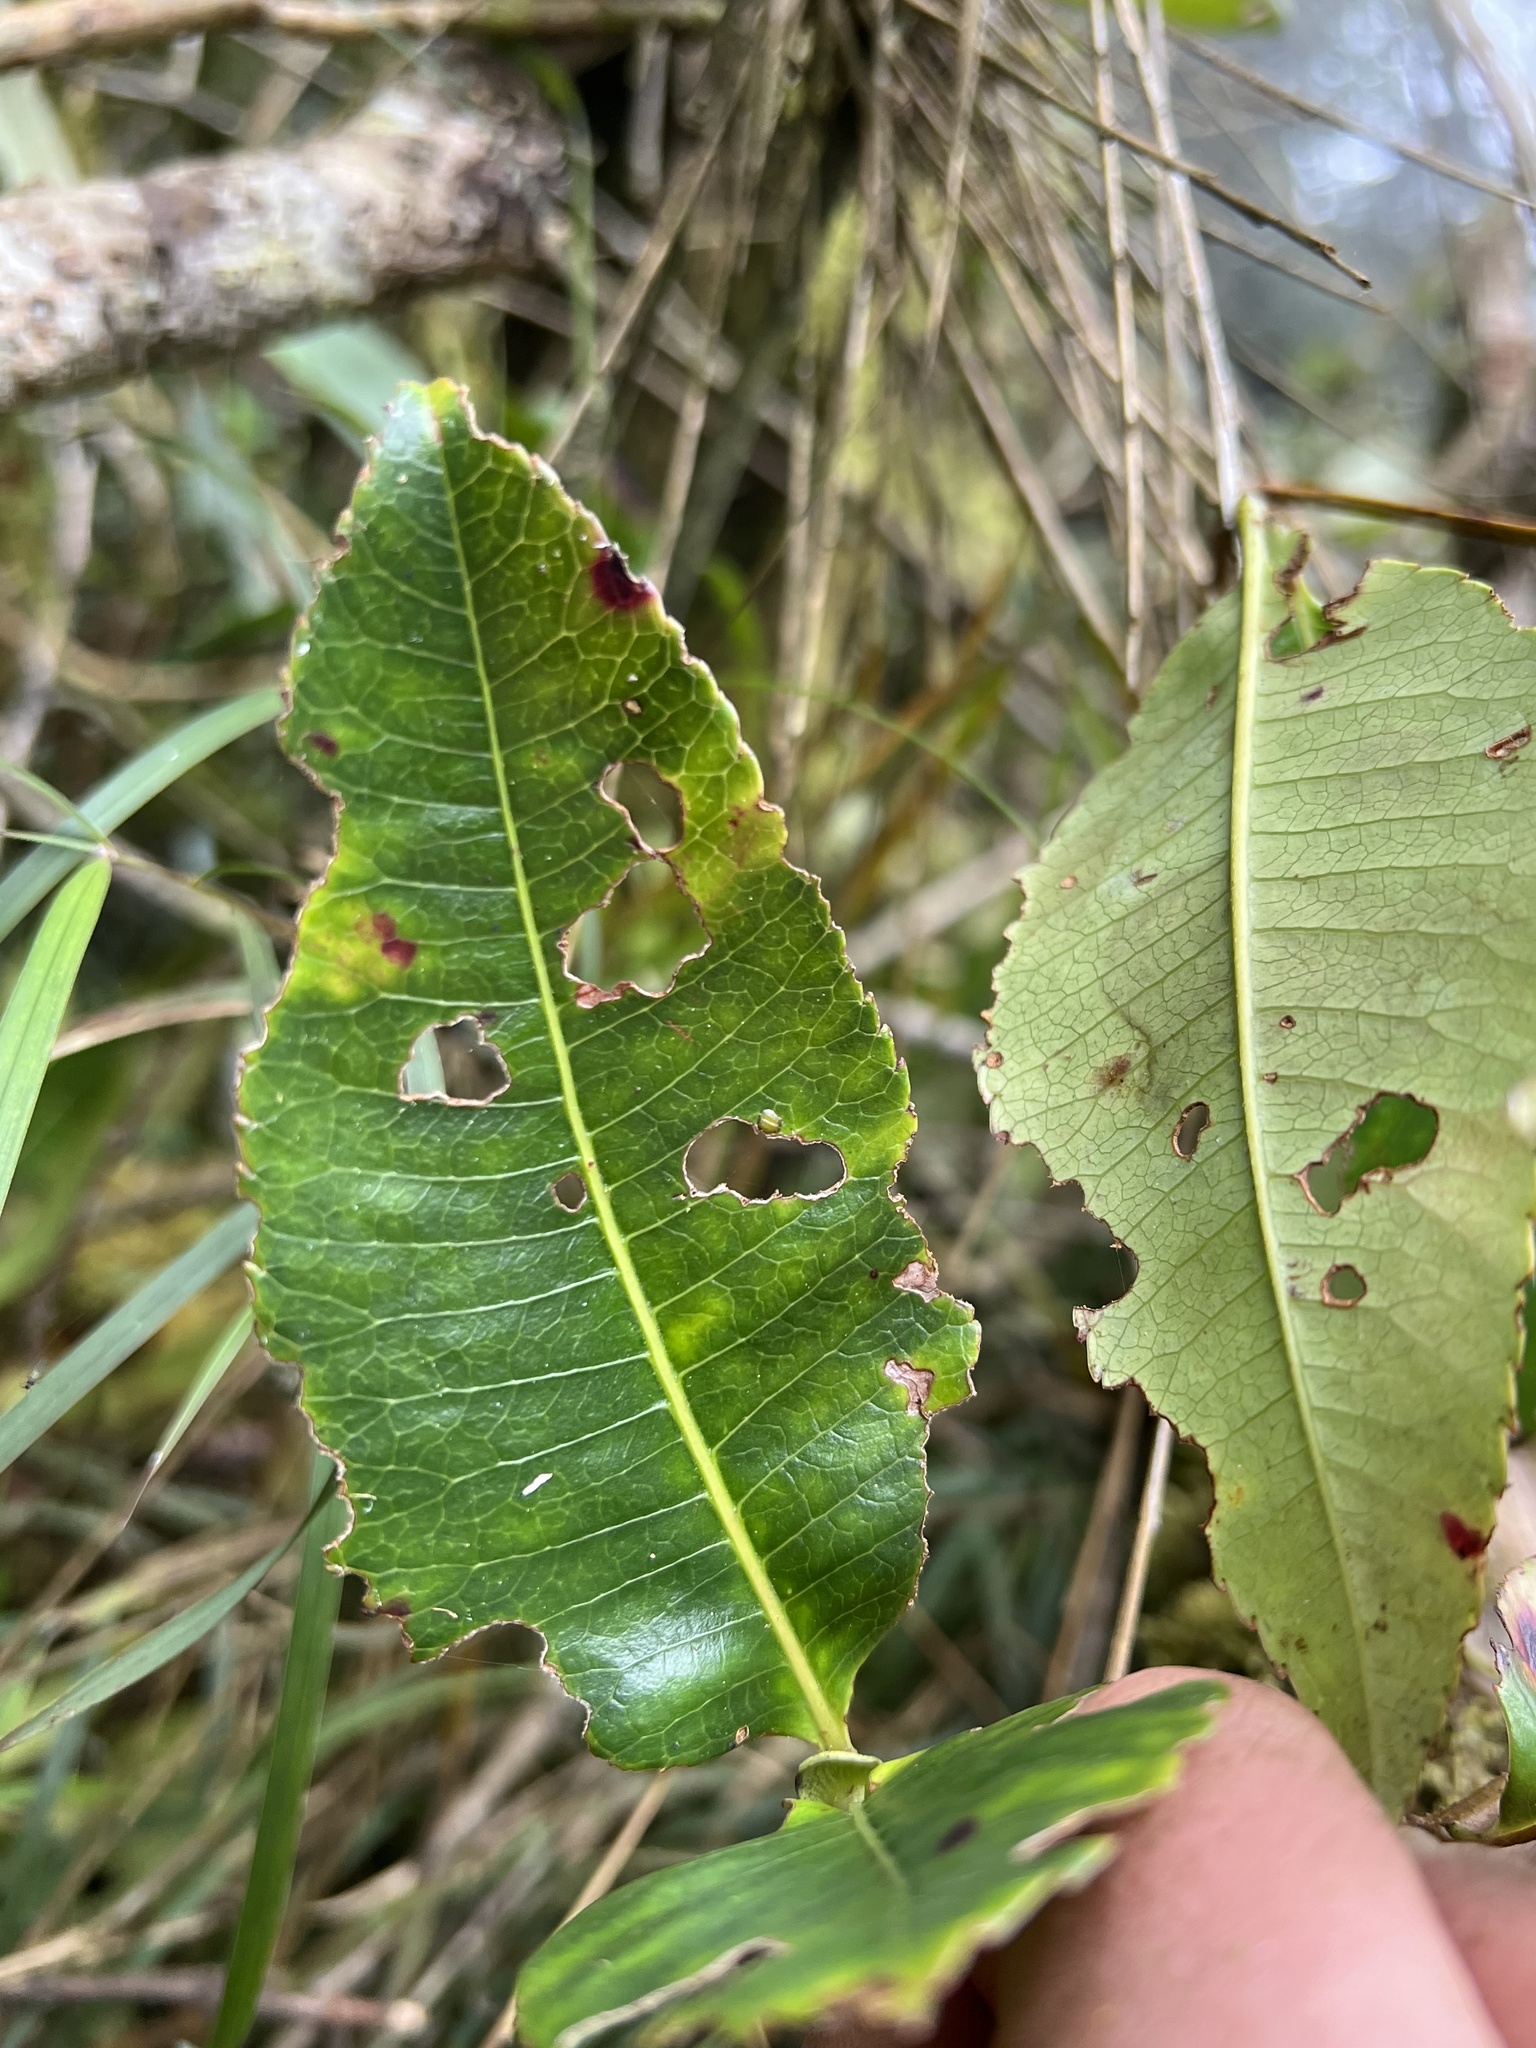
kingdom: Plantae
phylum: Tracheophyta
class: Magnoliopsida
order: Oxalidales
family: Cunoniaceae
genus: Weinmannia
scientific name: Weinmannia balbisana
